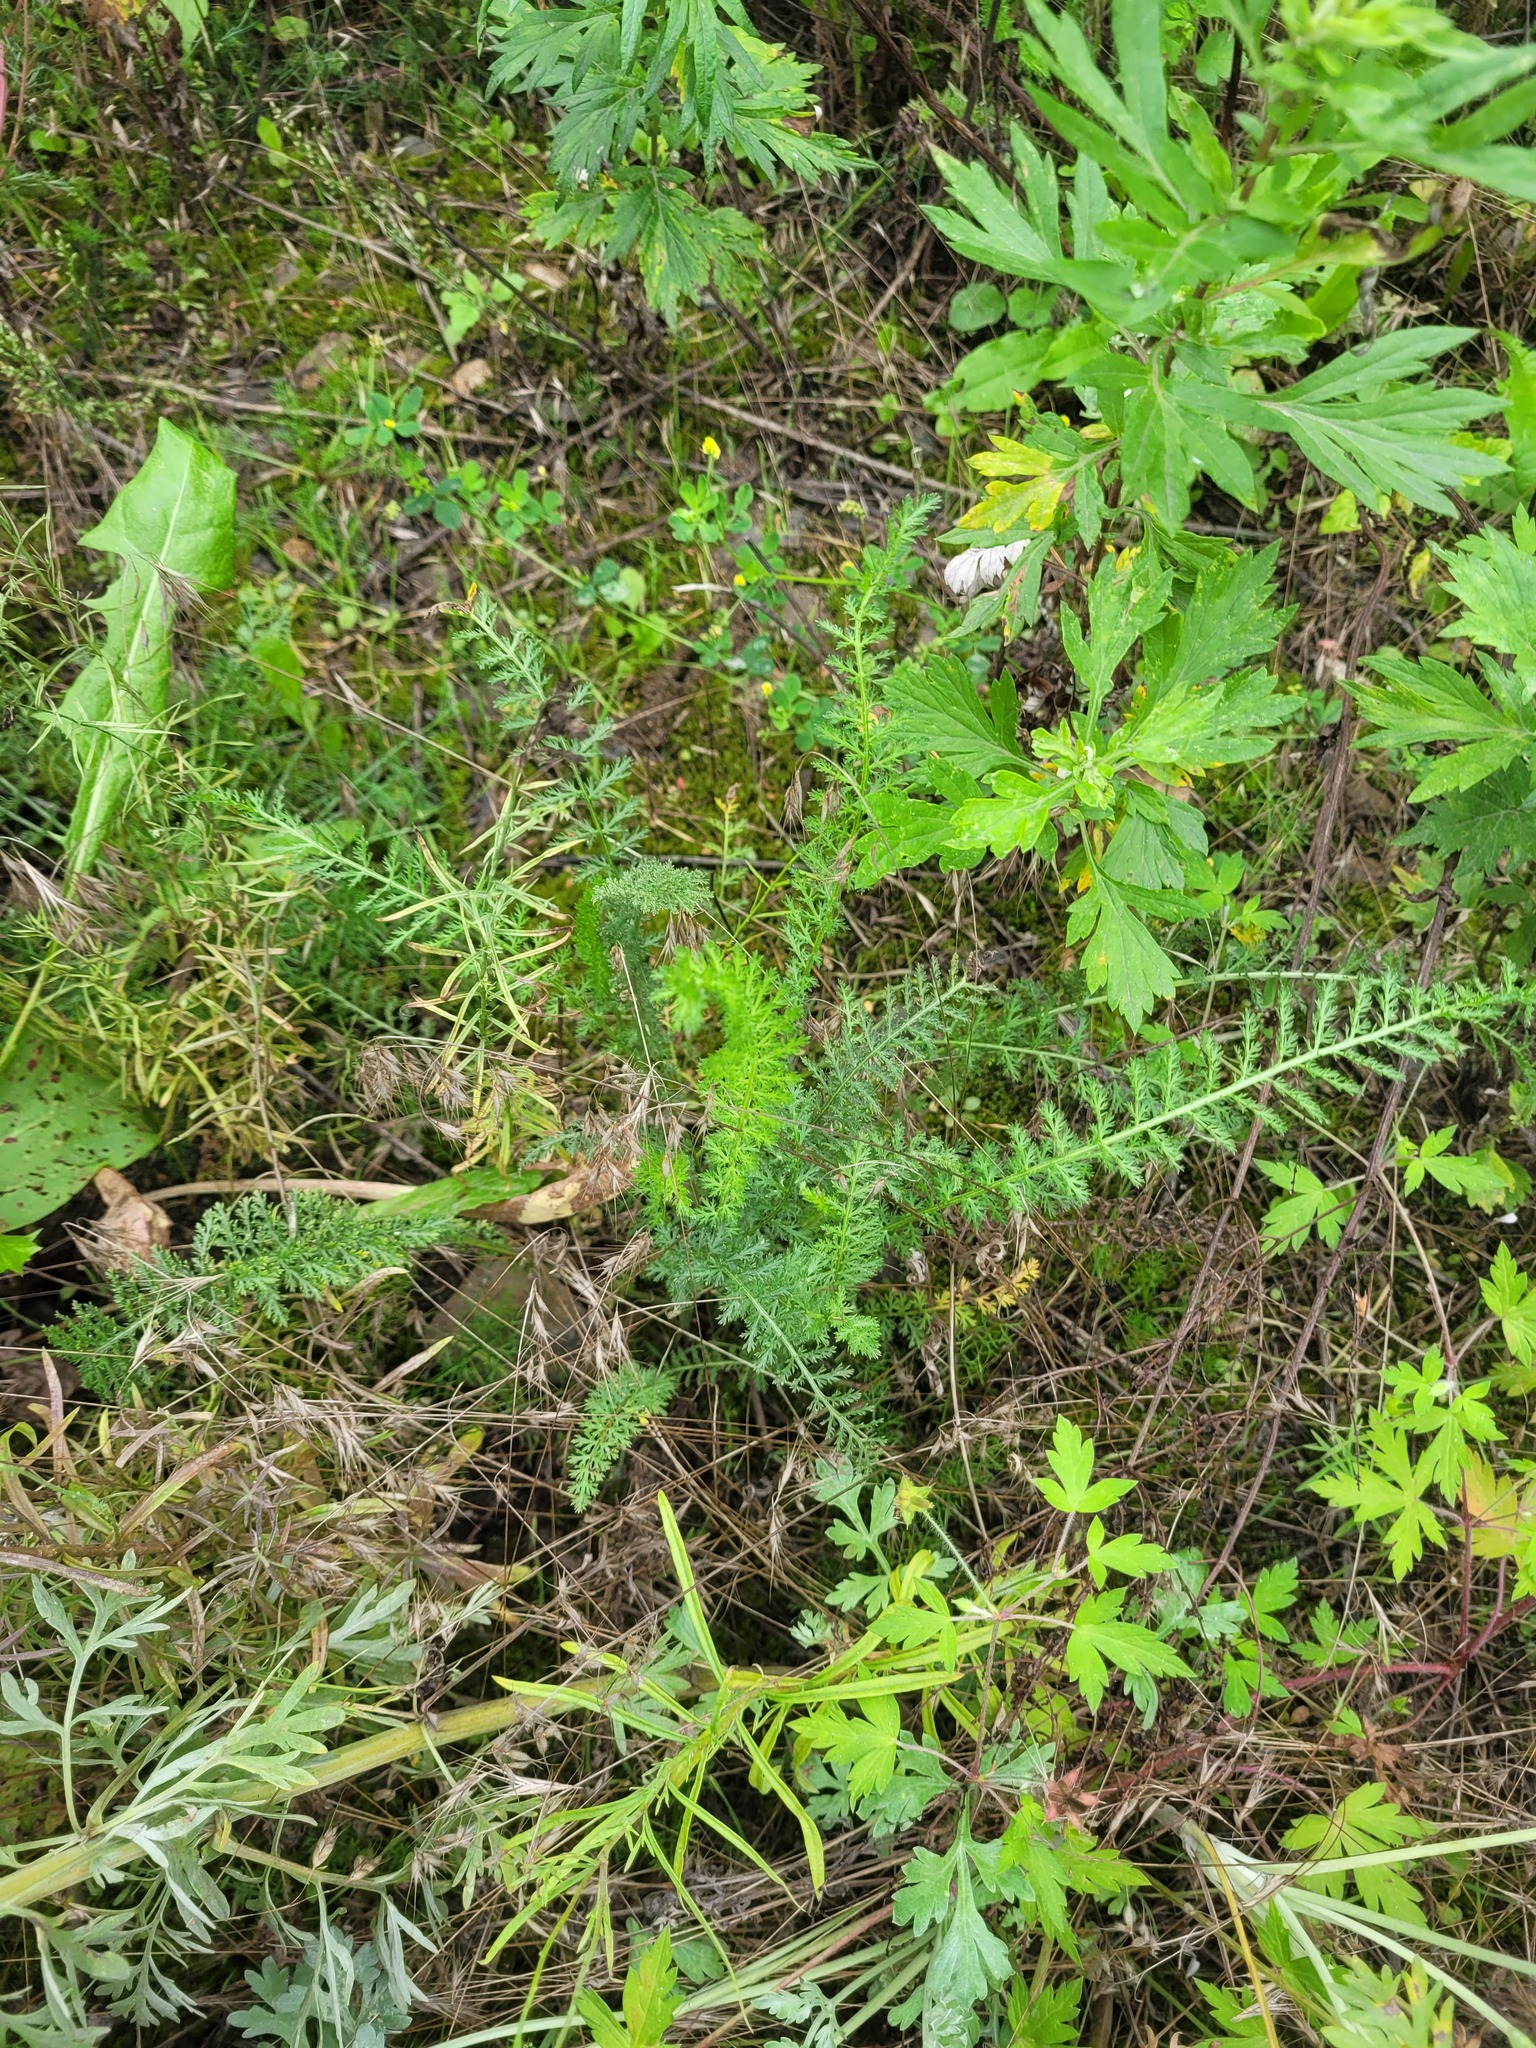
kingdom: Plantae
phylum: Tracheophyta
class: Magnoliopsida
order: Asterales
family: Asteraceae
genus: Achillea
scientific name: Achillea millefolium
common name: Yarrow
